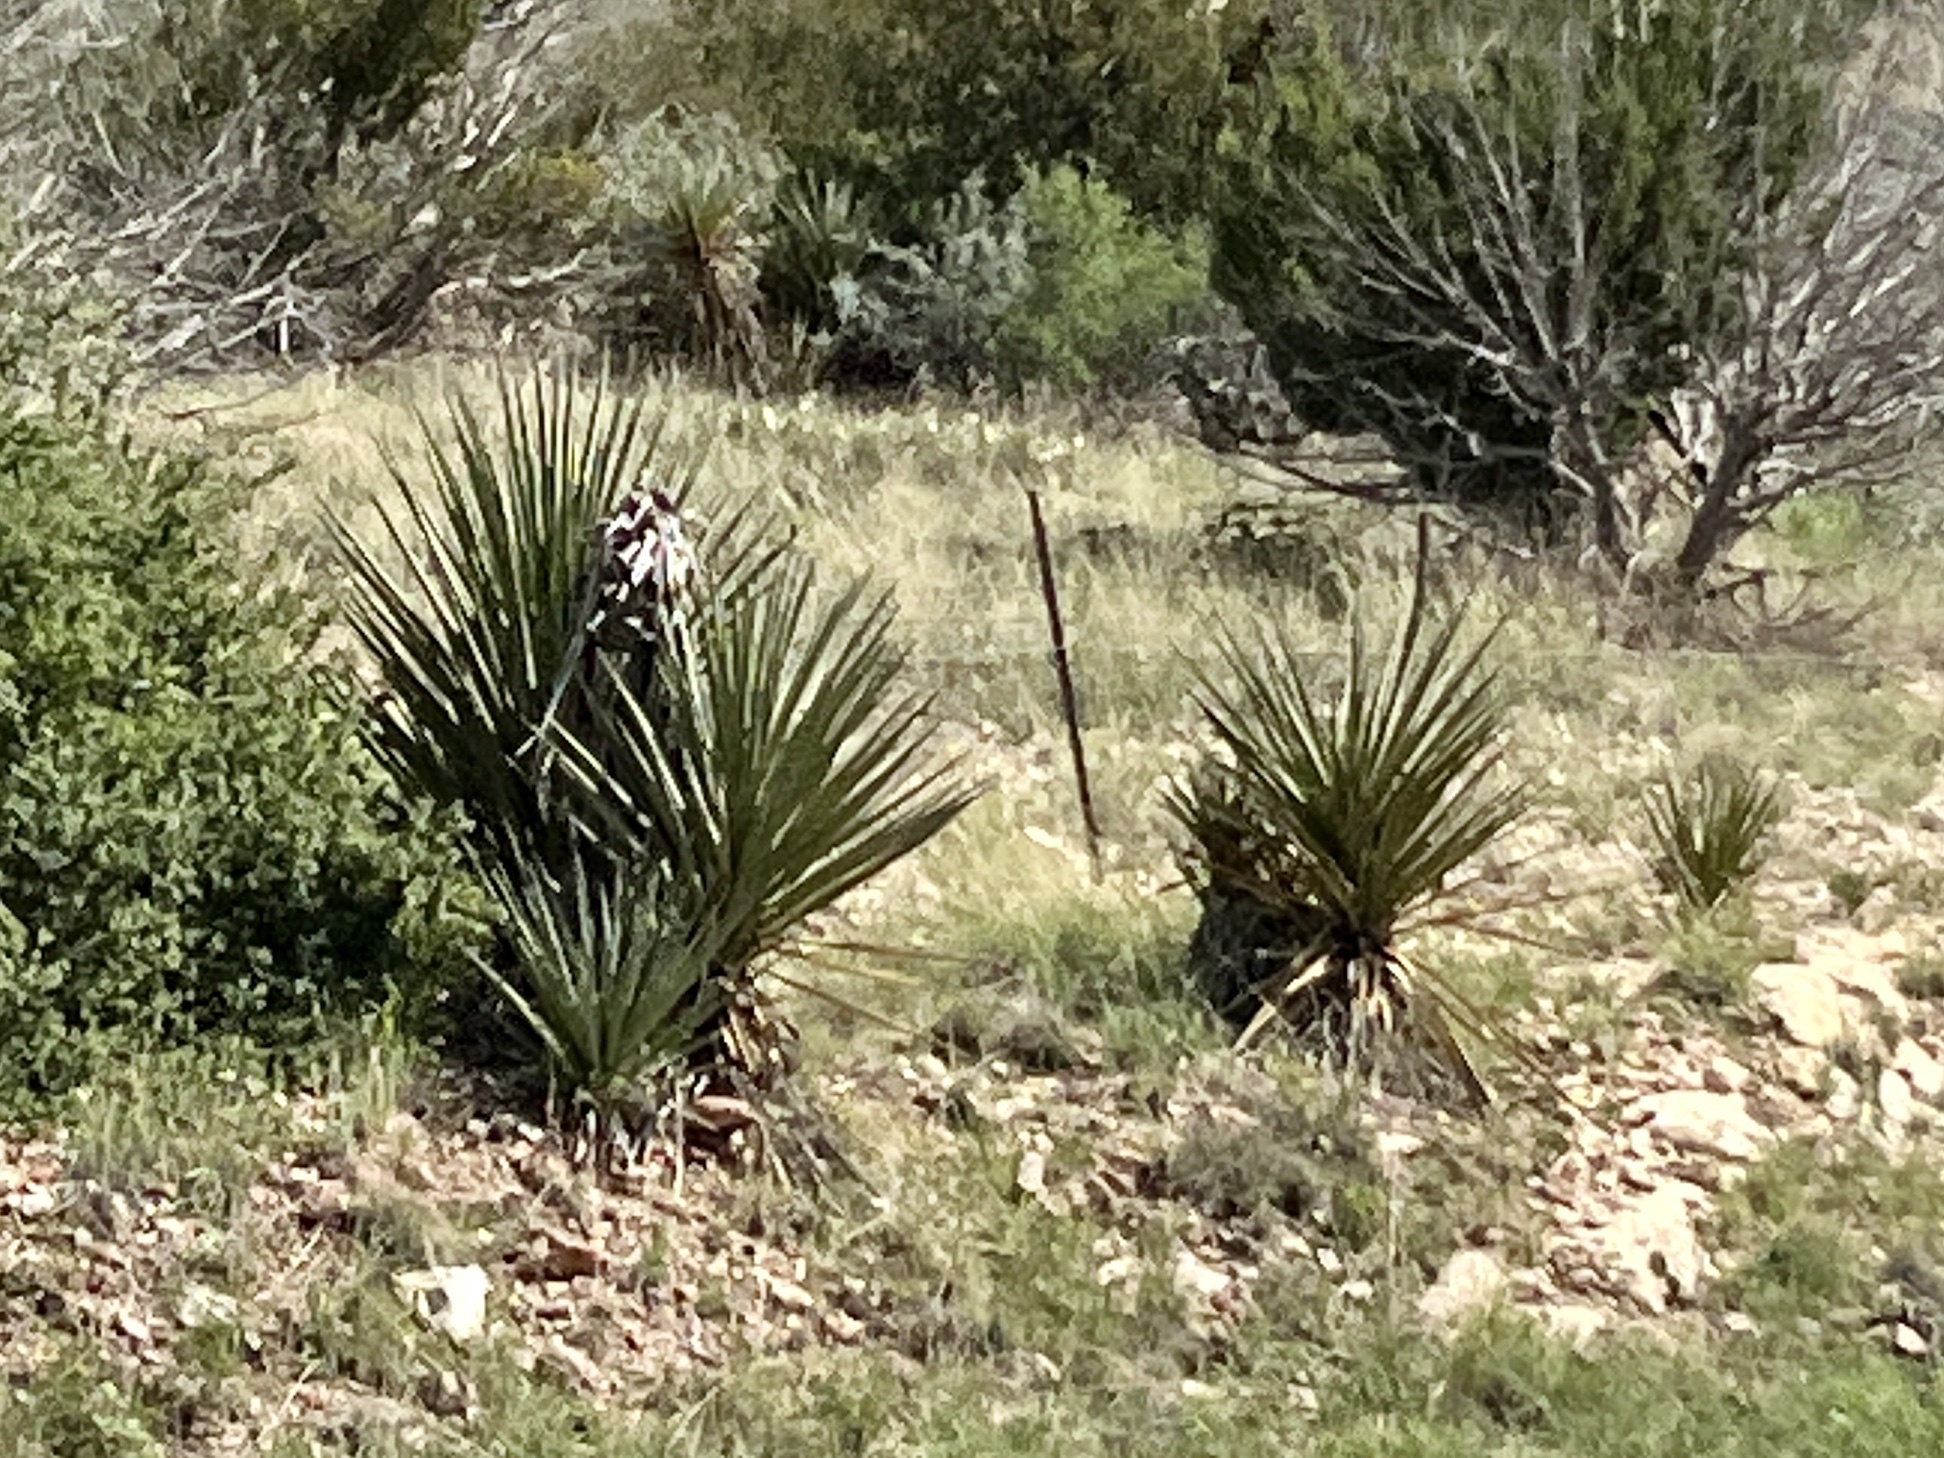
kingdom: Plantae
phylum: Tracheophyta
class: Liliopsida
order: Asparagales
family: Asparagaceae
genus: Yucca
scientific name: Yucca treculiana
